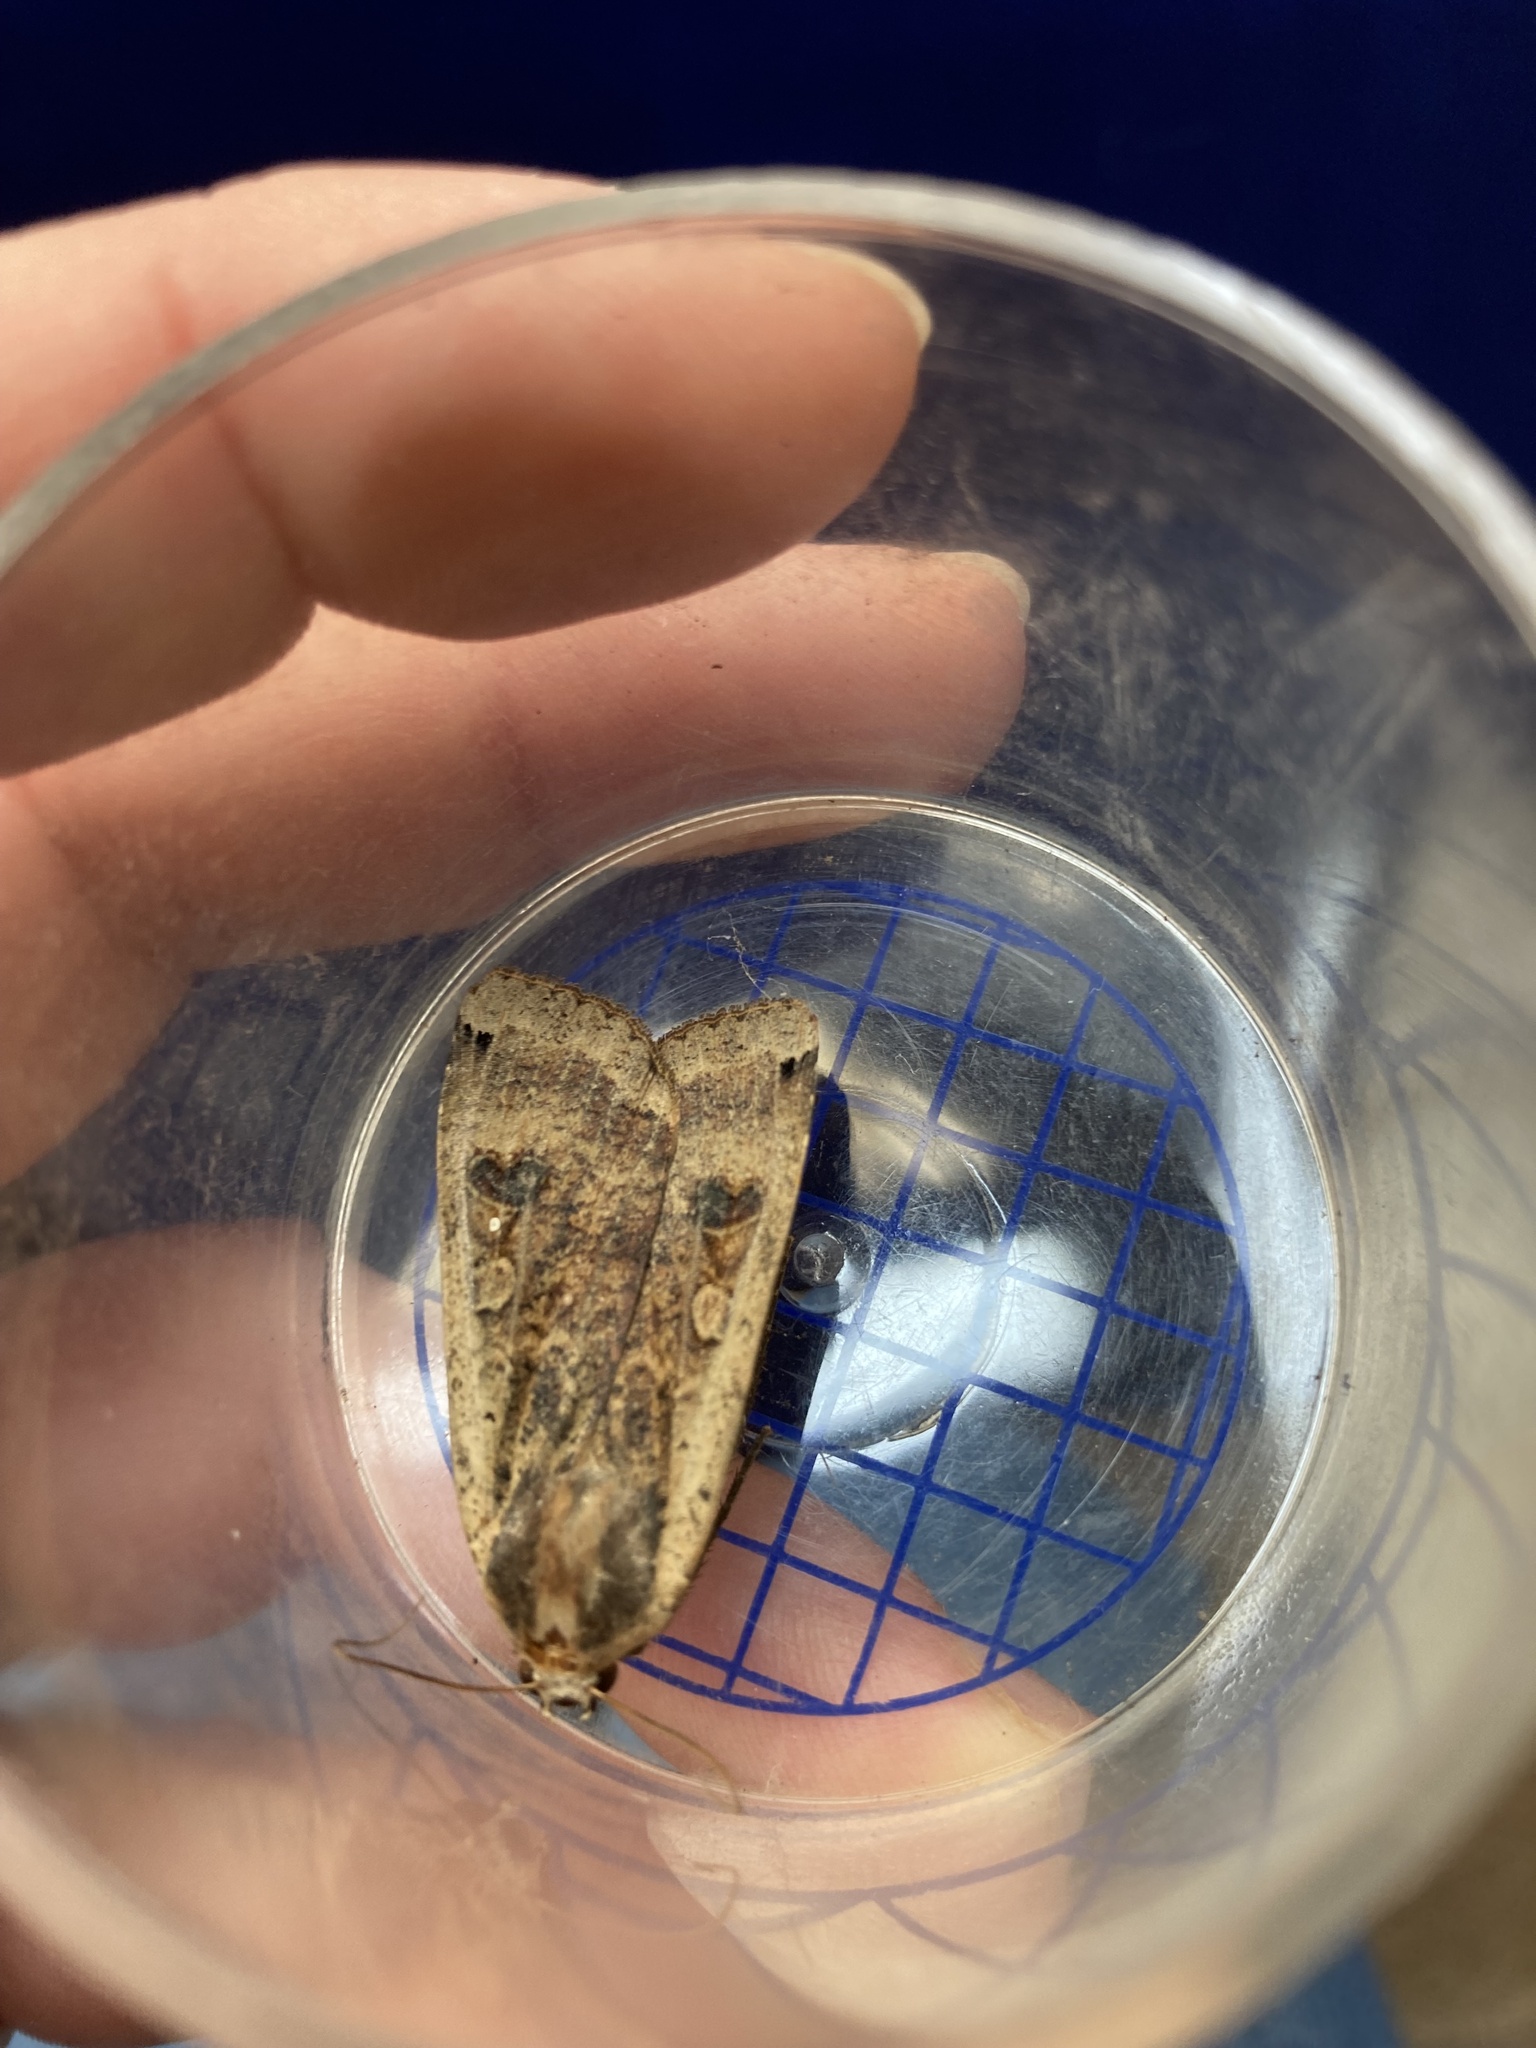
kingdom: Animalia
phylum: Arthropoda
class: Insecta
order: Lepidoptera
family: Noctuidae
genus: Noctua
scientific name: Noctua pronuba
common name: Large yellow underwing
